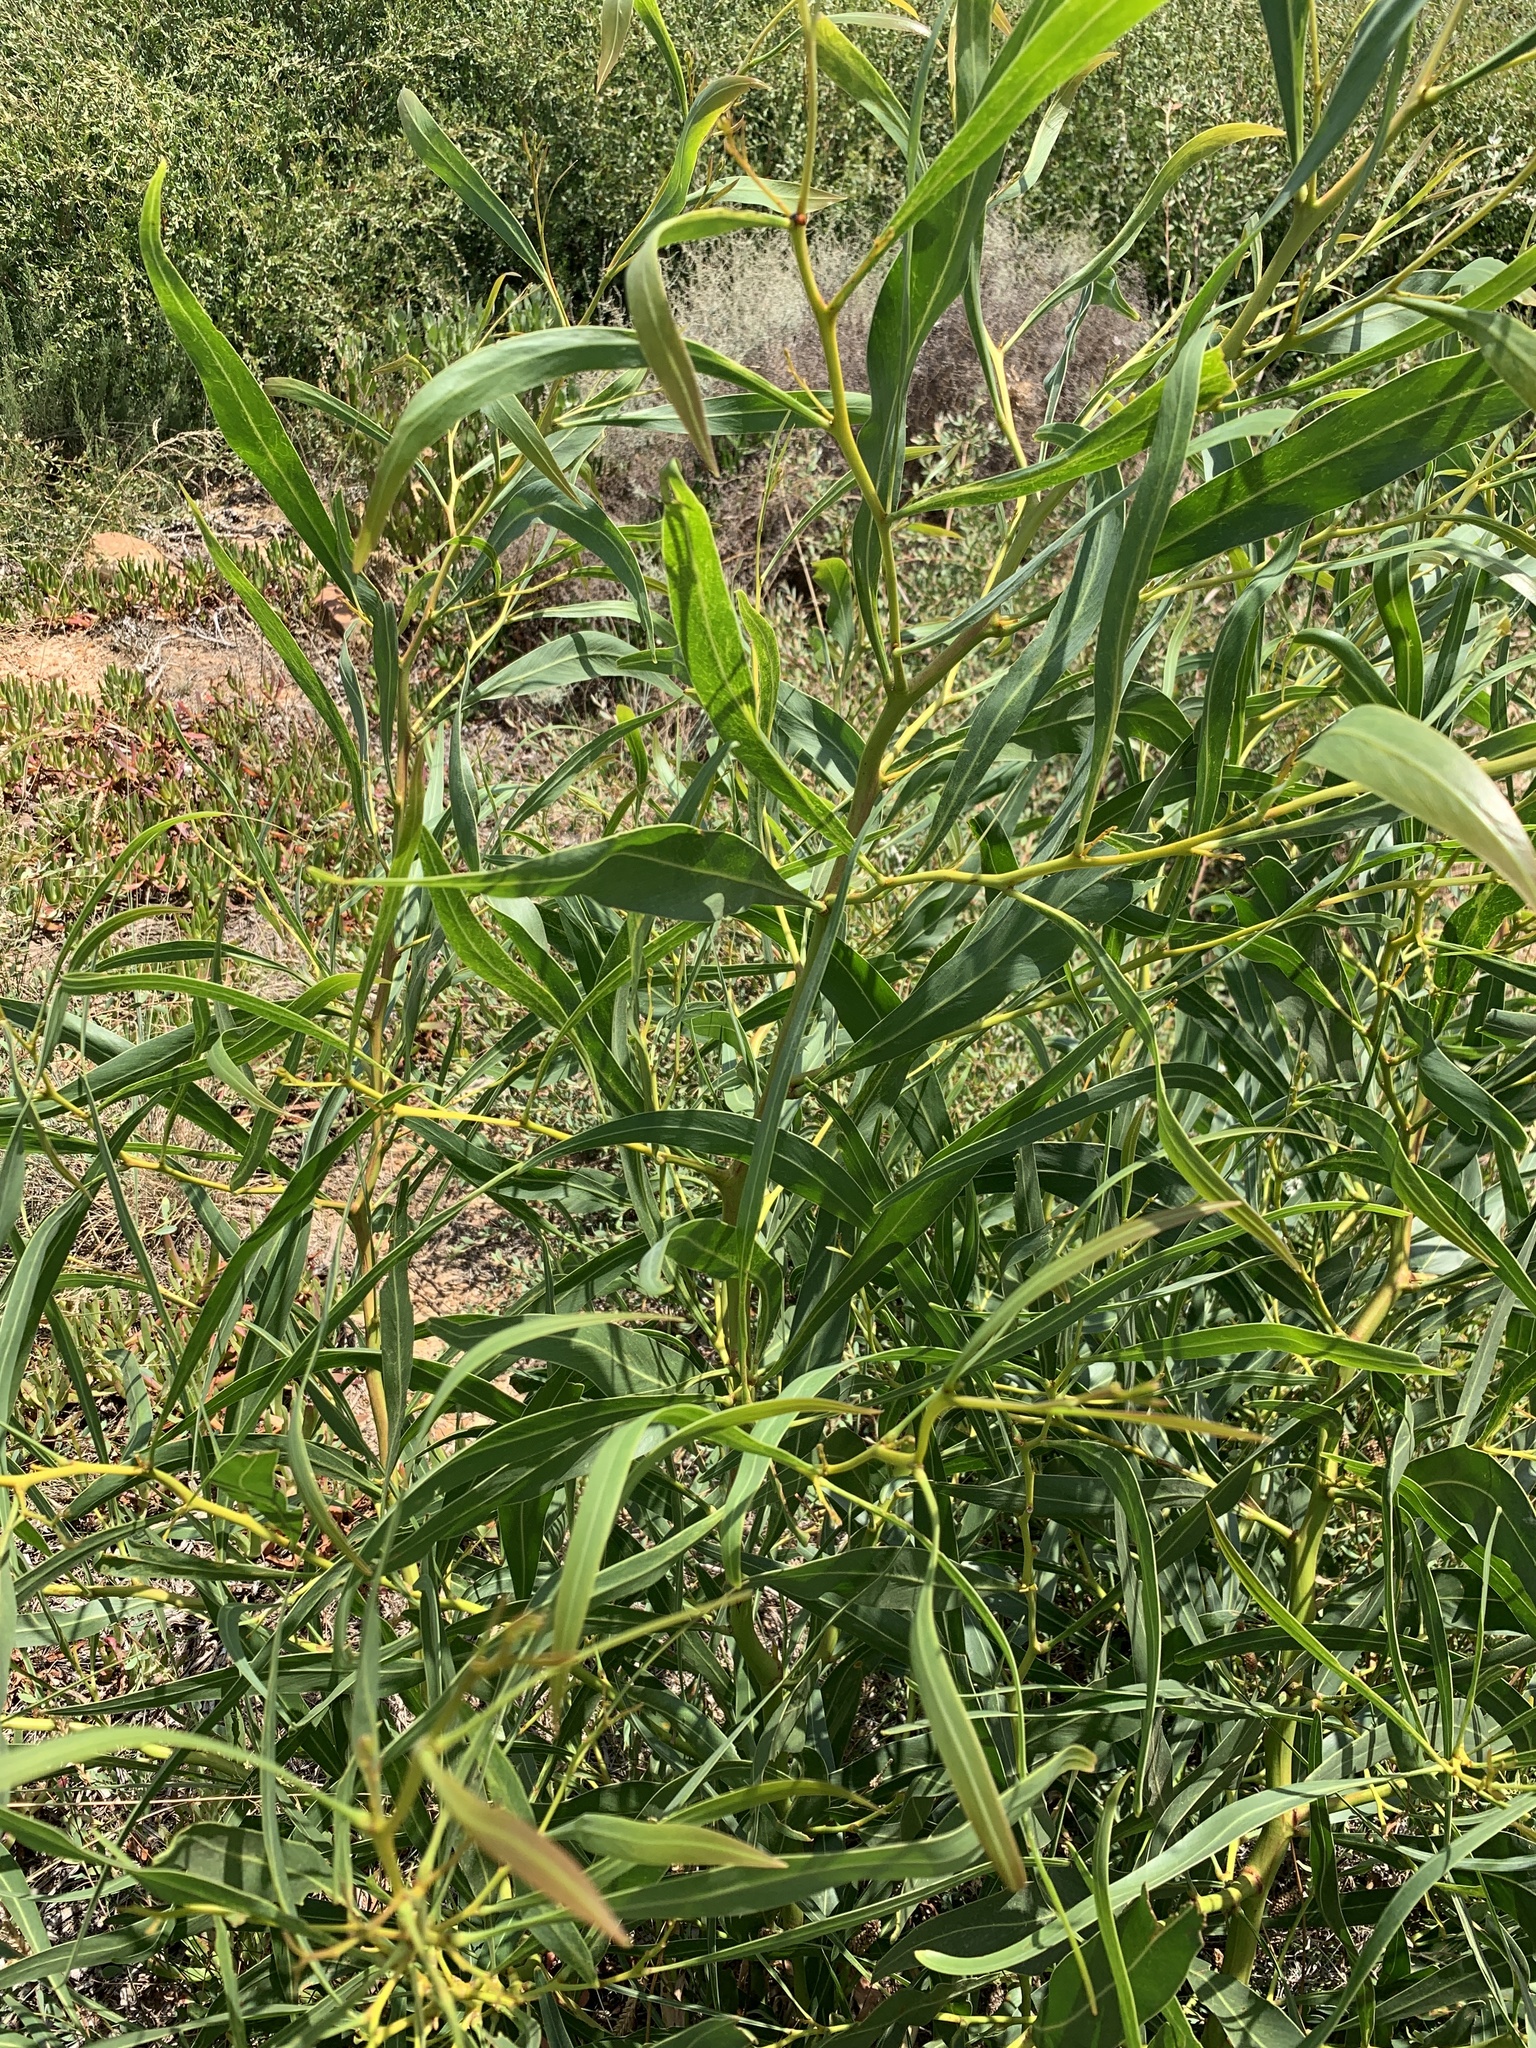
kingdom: Plantae
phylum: Tracheophyta
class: Magnoliopsida
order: Fabales
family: Fabaceae
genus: Acacia
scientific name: Acacia saligna
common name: Orange wattle
